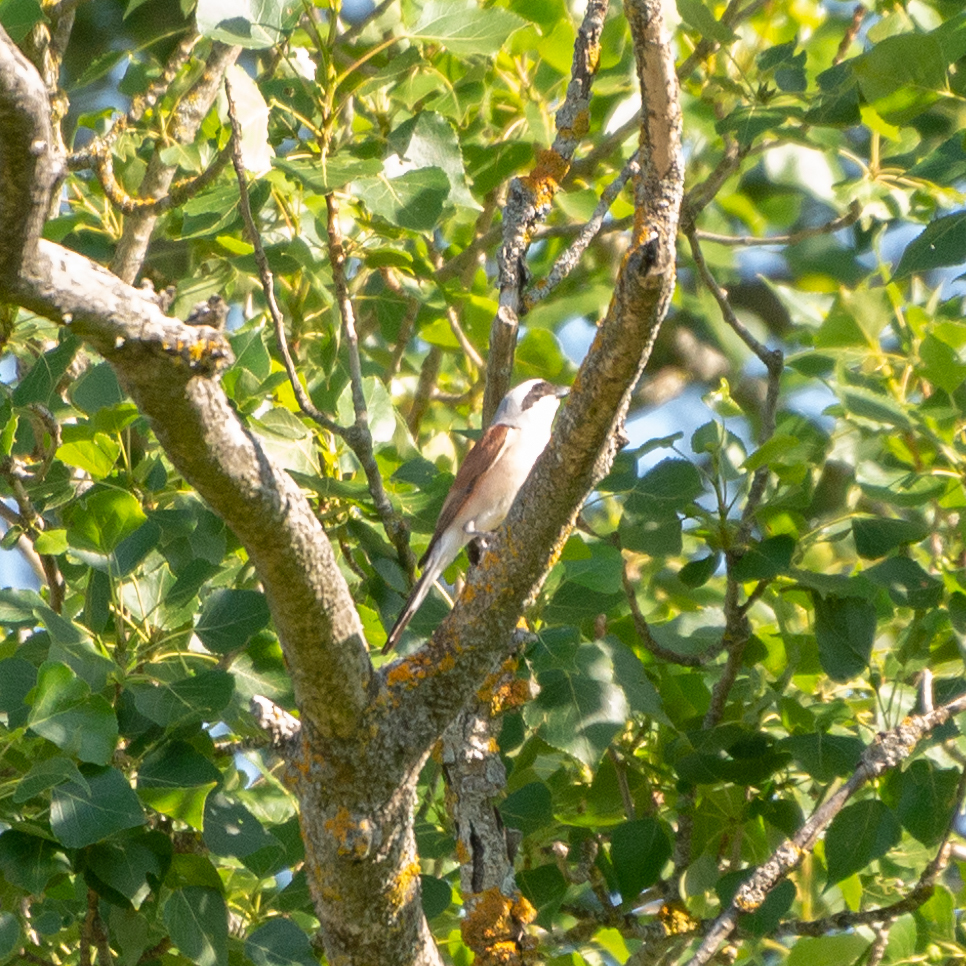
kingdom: Animalia
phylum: Chordata
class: Aves
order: Passeriformes
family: Laniidae
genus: Lanius
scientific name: Lanius collurio
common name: Red-backed shrike
